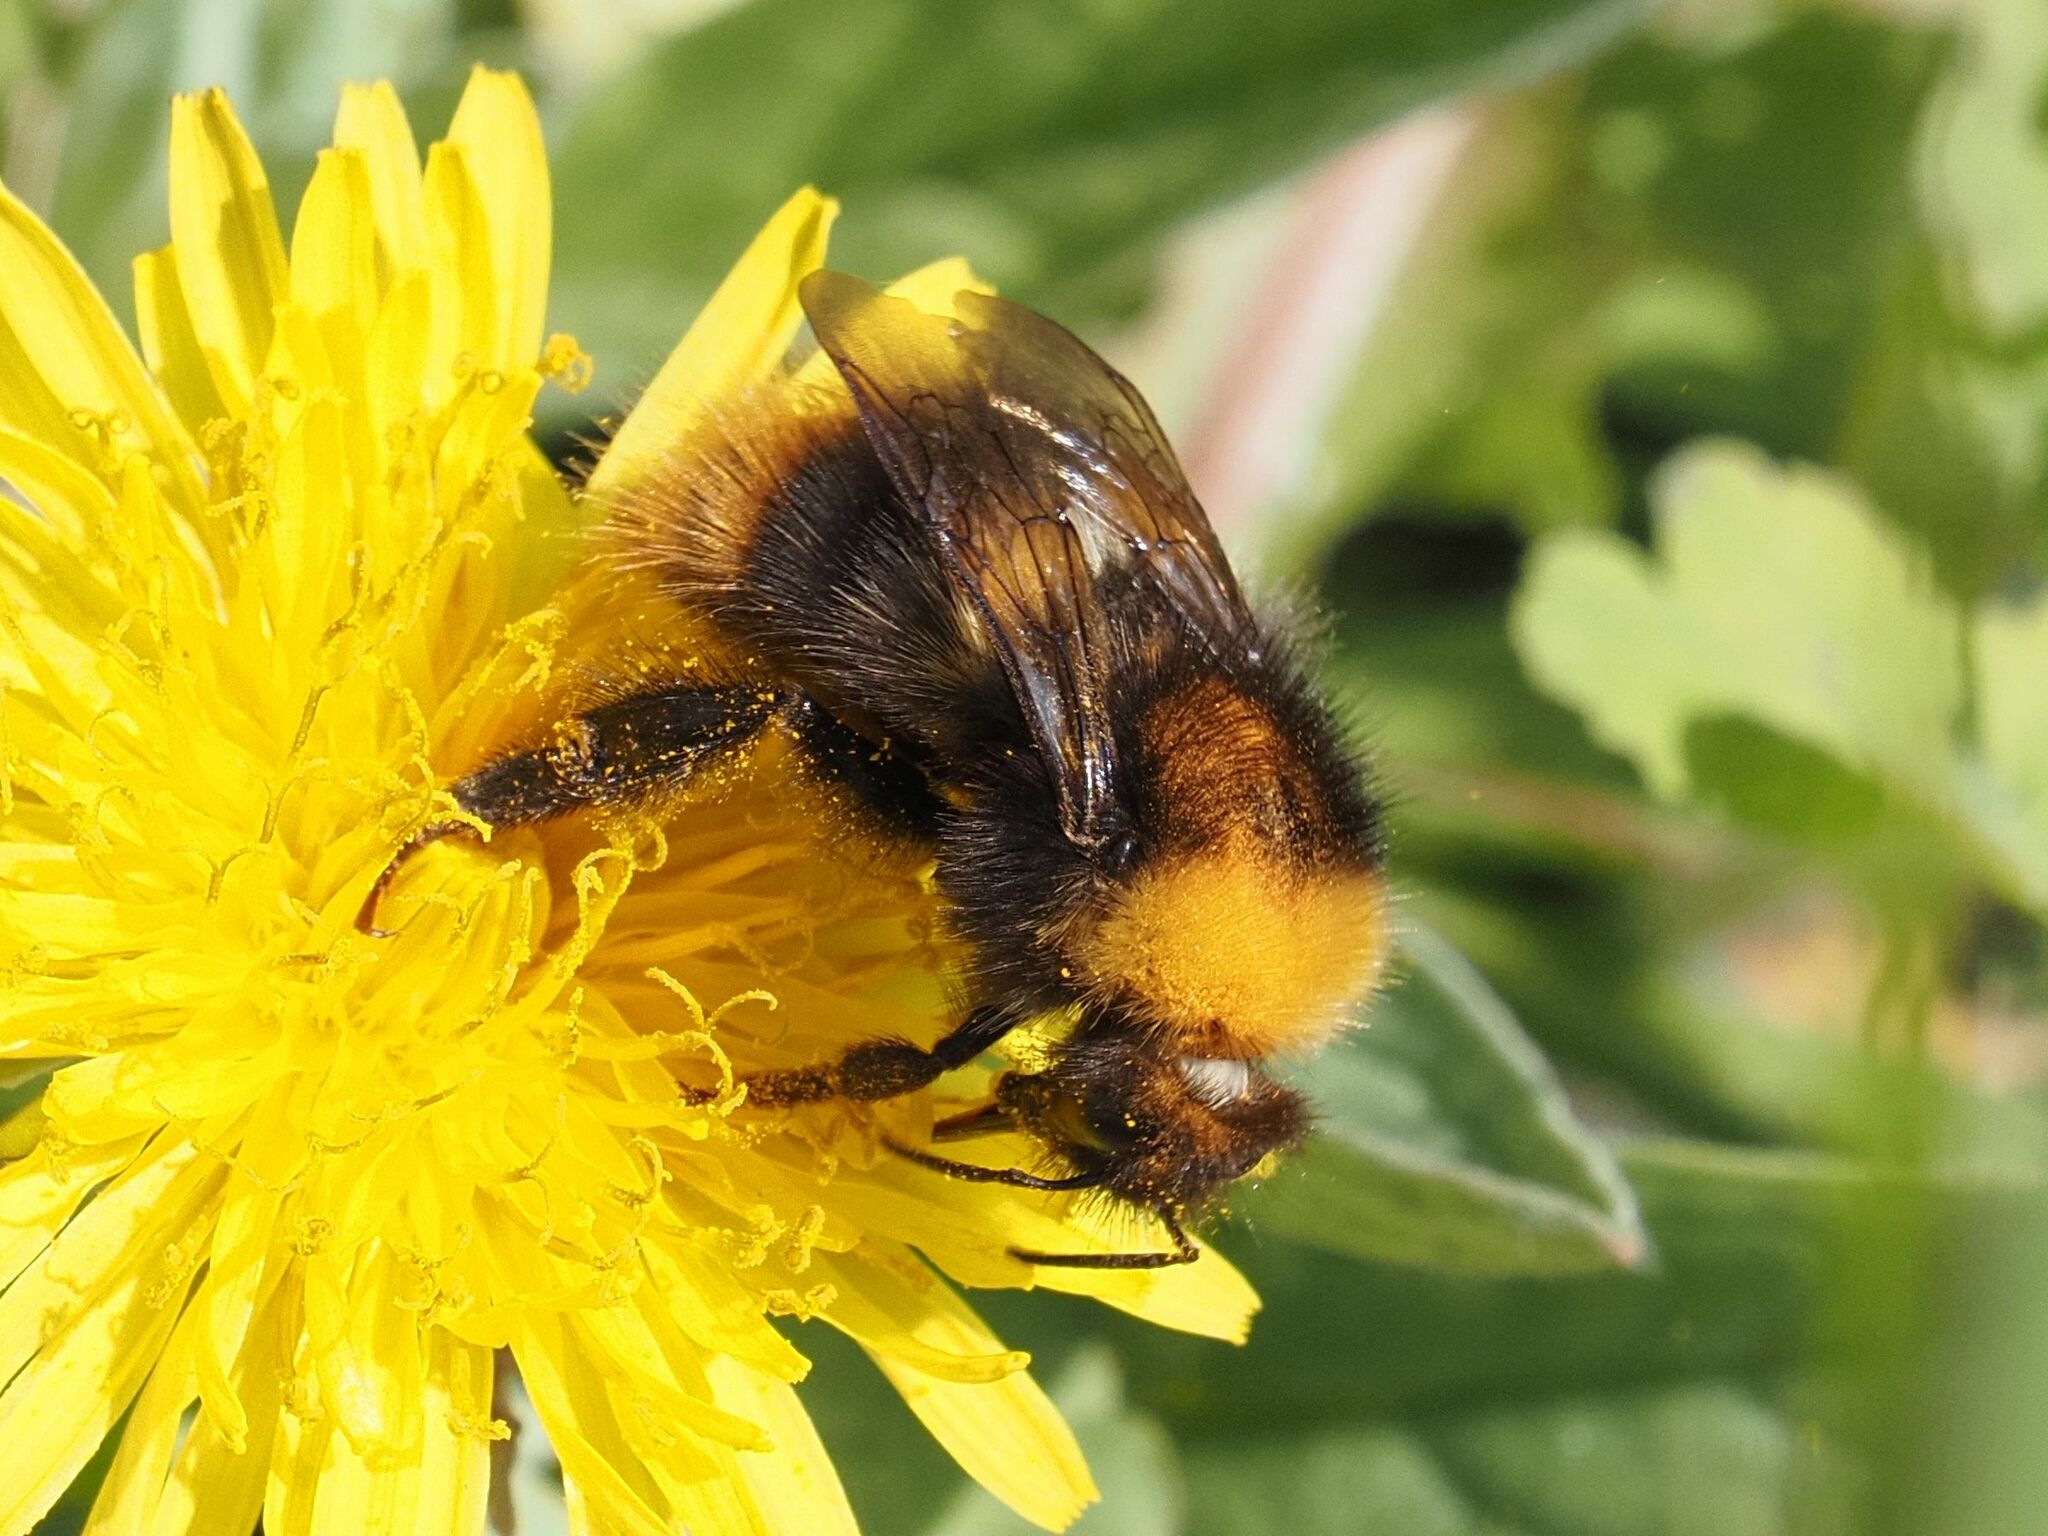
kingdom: Animalia
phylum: Arthropoda
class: Insecta
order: Hymenoptera
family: Apidae
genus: Bombus
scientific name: Bombus pratorum
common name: Early humble-bee
